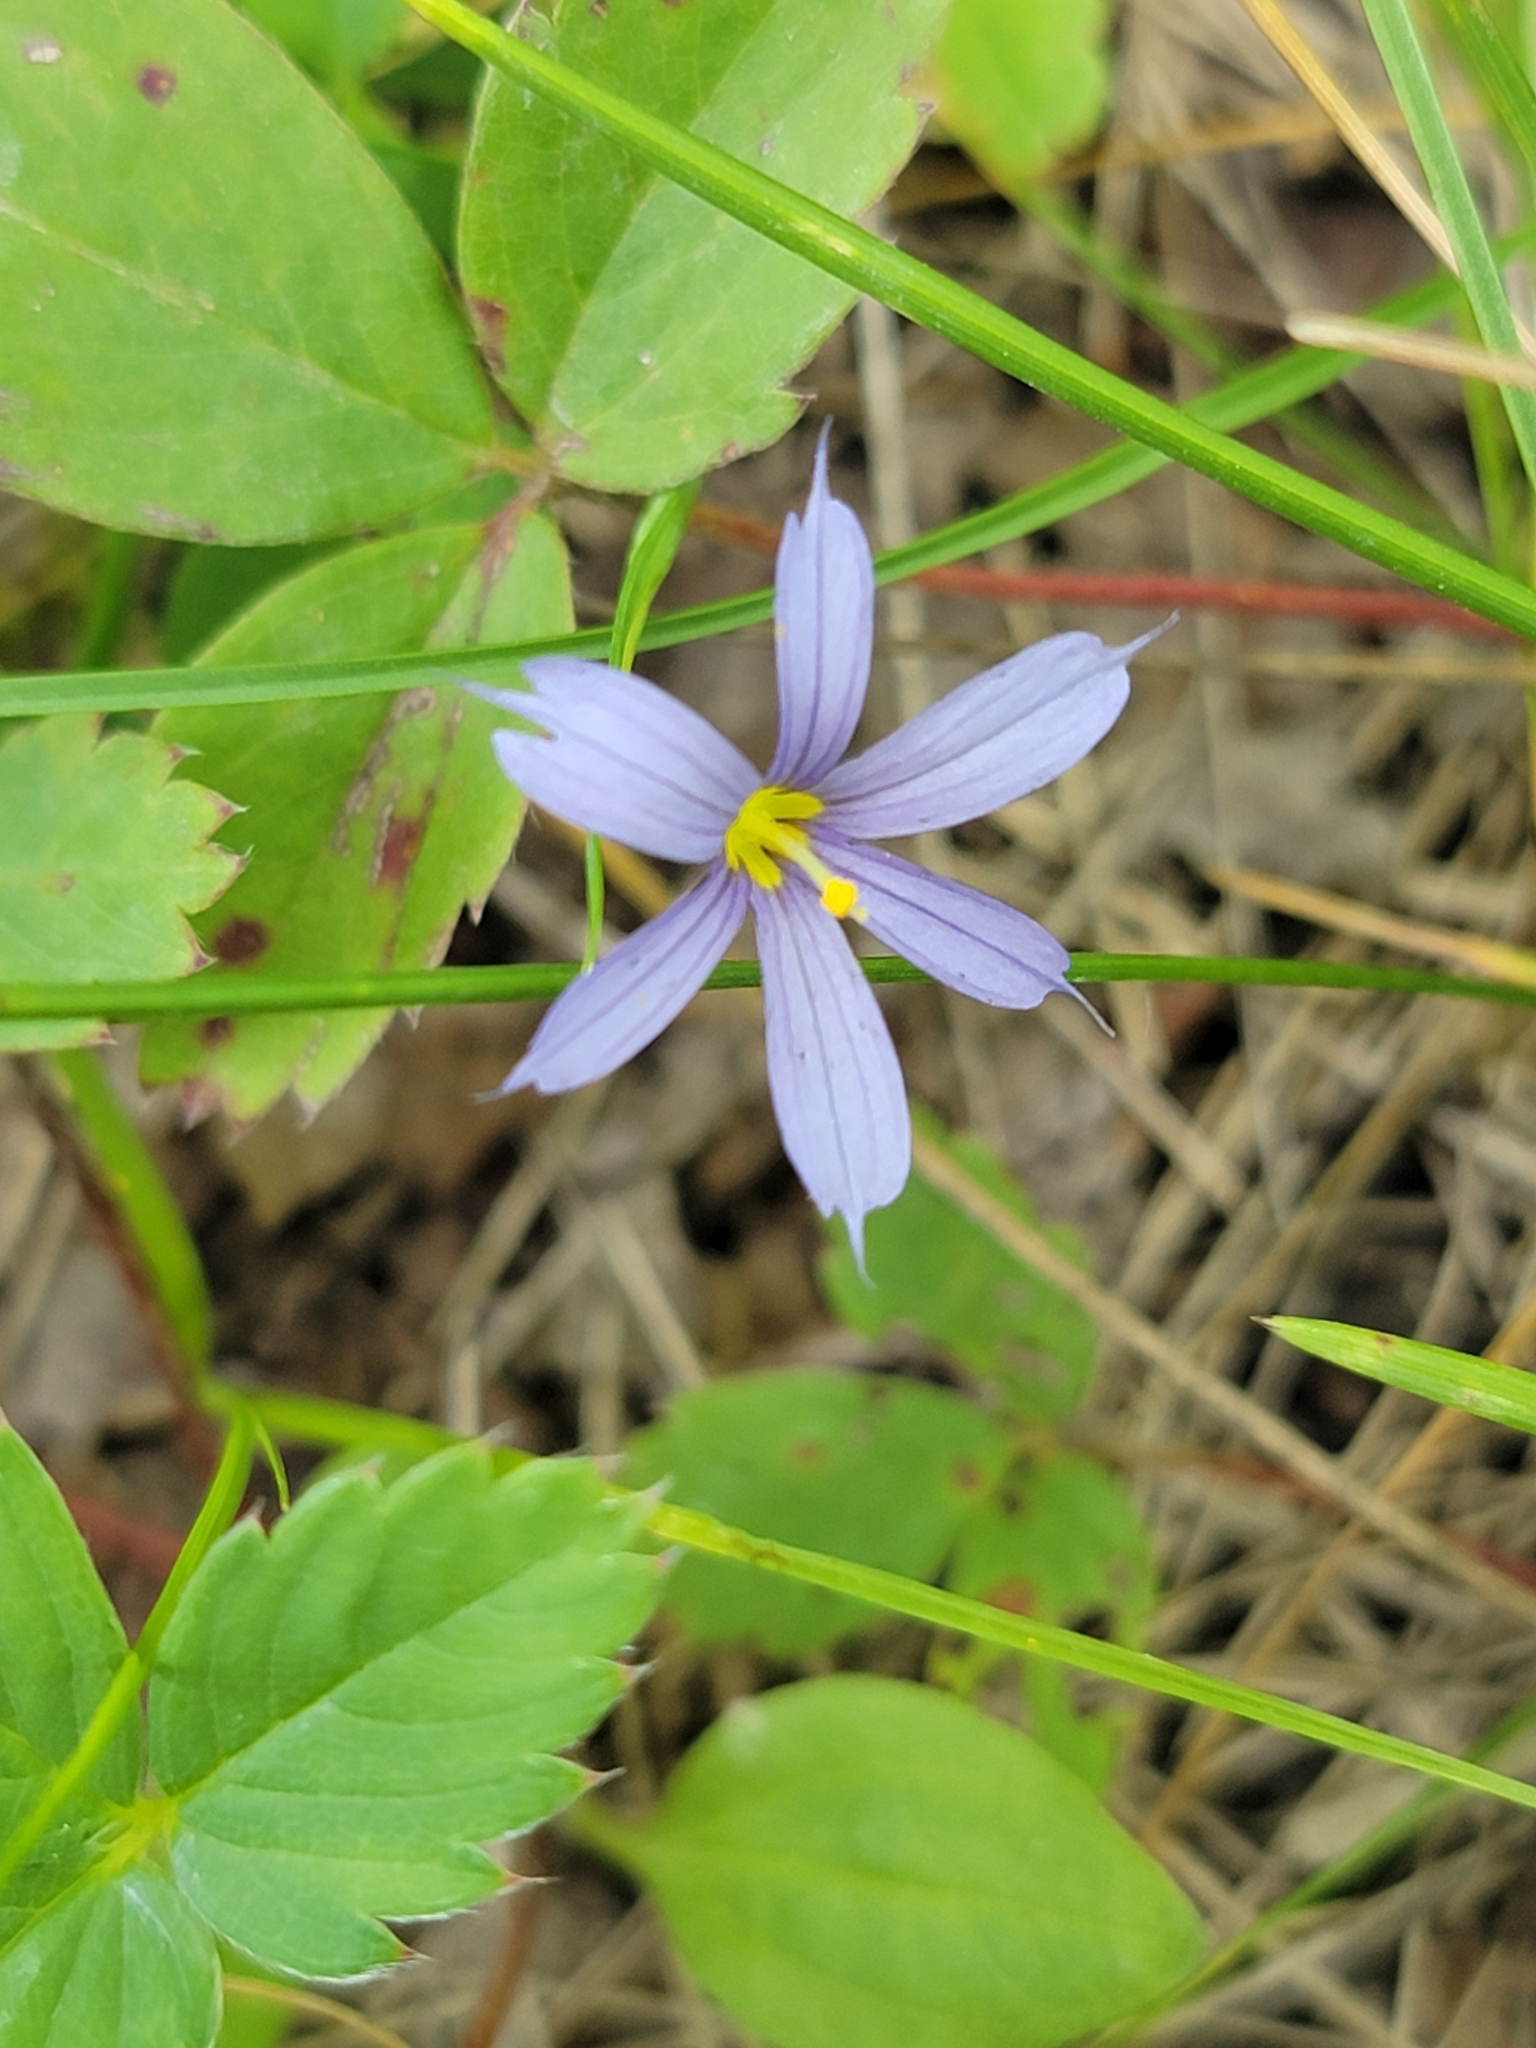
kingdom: Plantae
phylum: Tracheophyta
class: Liliopsida
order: Asparagales
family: Iridaceae
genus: Sisyrinchium
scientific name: Sisyrinchium montanum
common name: American blue-eyed-grass
